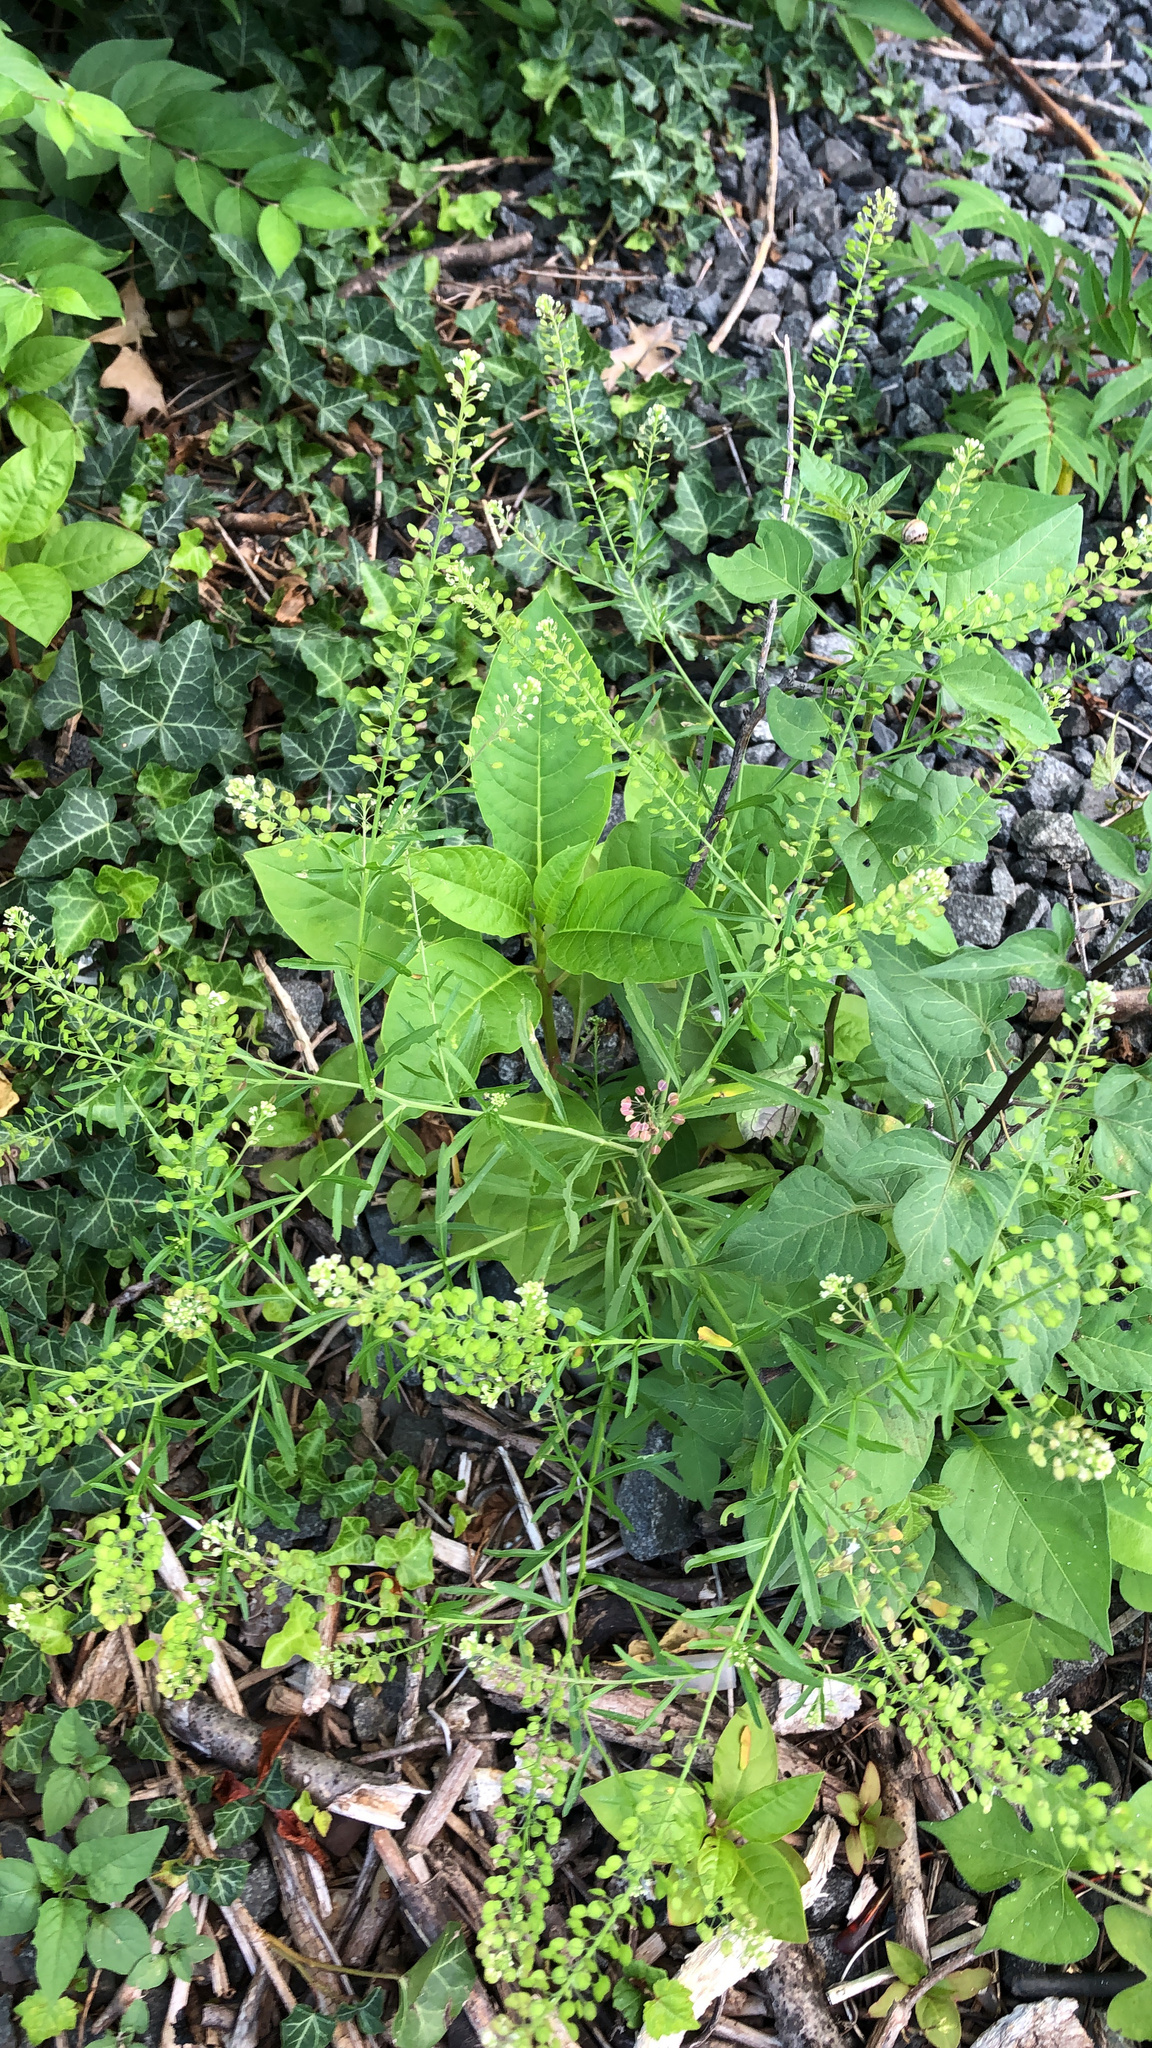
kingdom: Plantae
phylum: Tracheophyta
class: Magnoliopsida
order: Brassicales
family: Brassicaceae
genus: Lepidium
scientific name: Lepidium virginicum
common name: Least pepperwort
